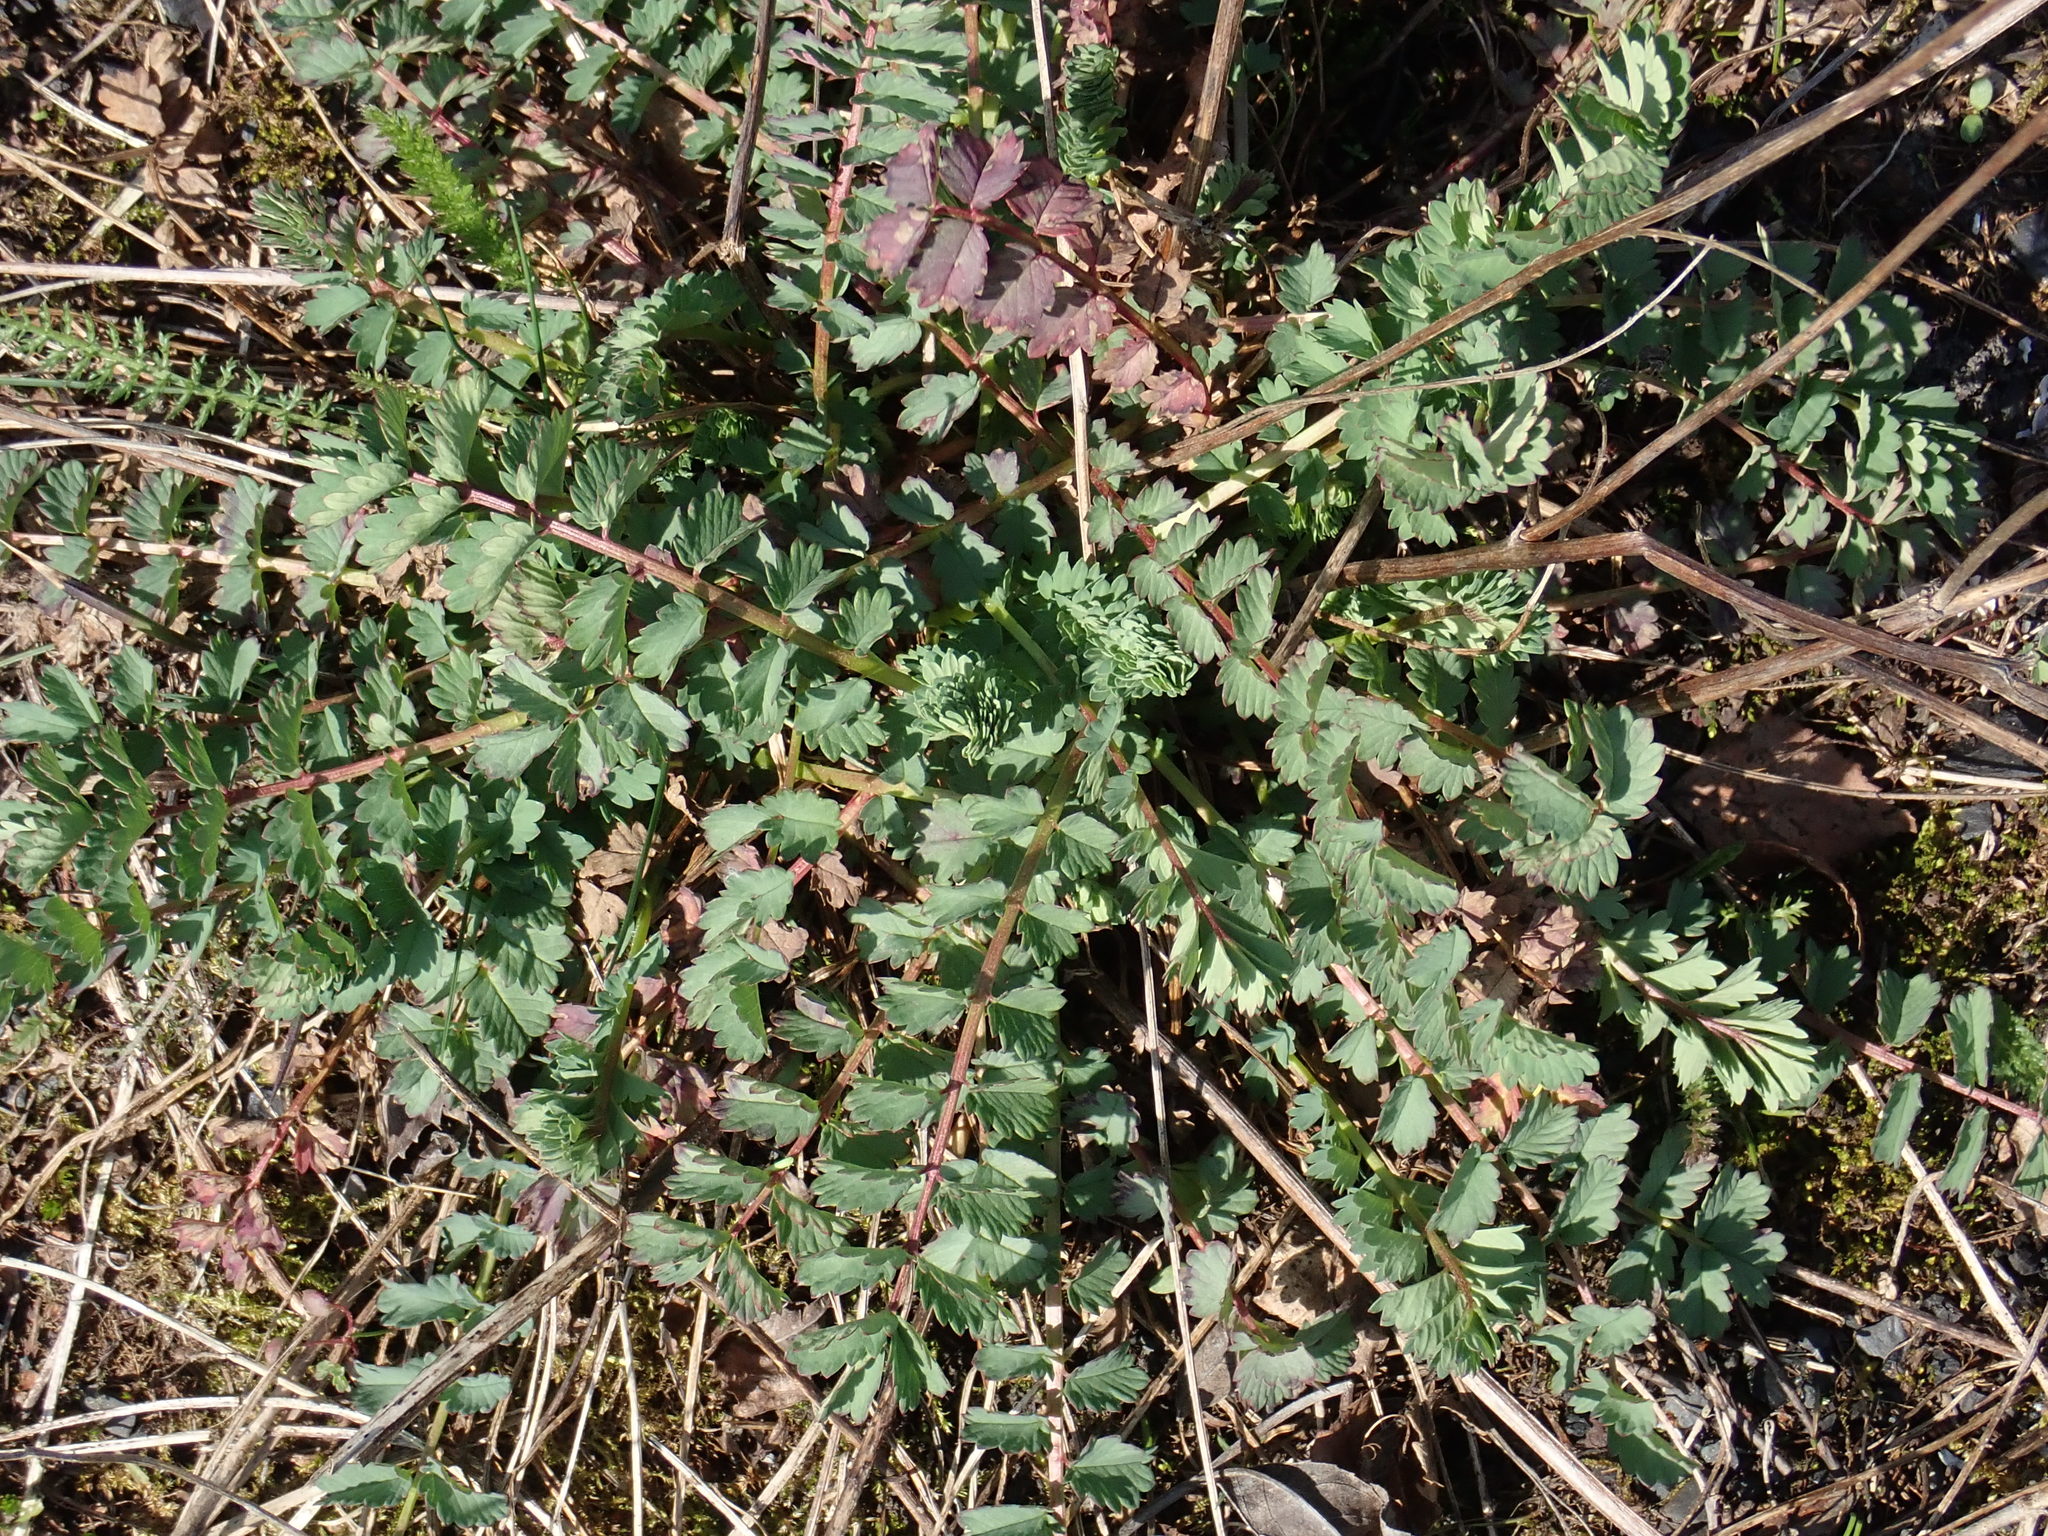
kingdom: Plantae
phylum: Tracheophyta
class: Magnoliopsida
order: Rosales
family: Rosaceae
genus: Poterium
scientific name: Poterium sanguisorba
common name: Salad burnet
